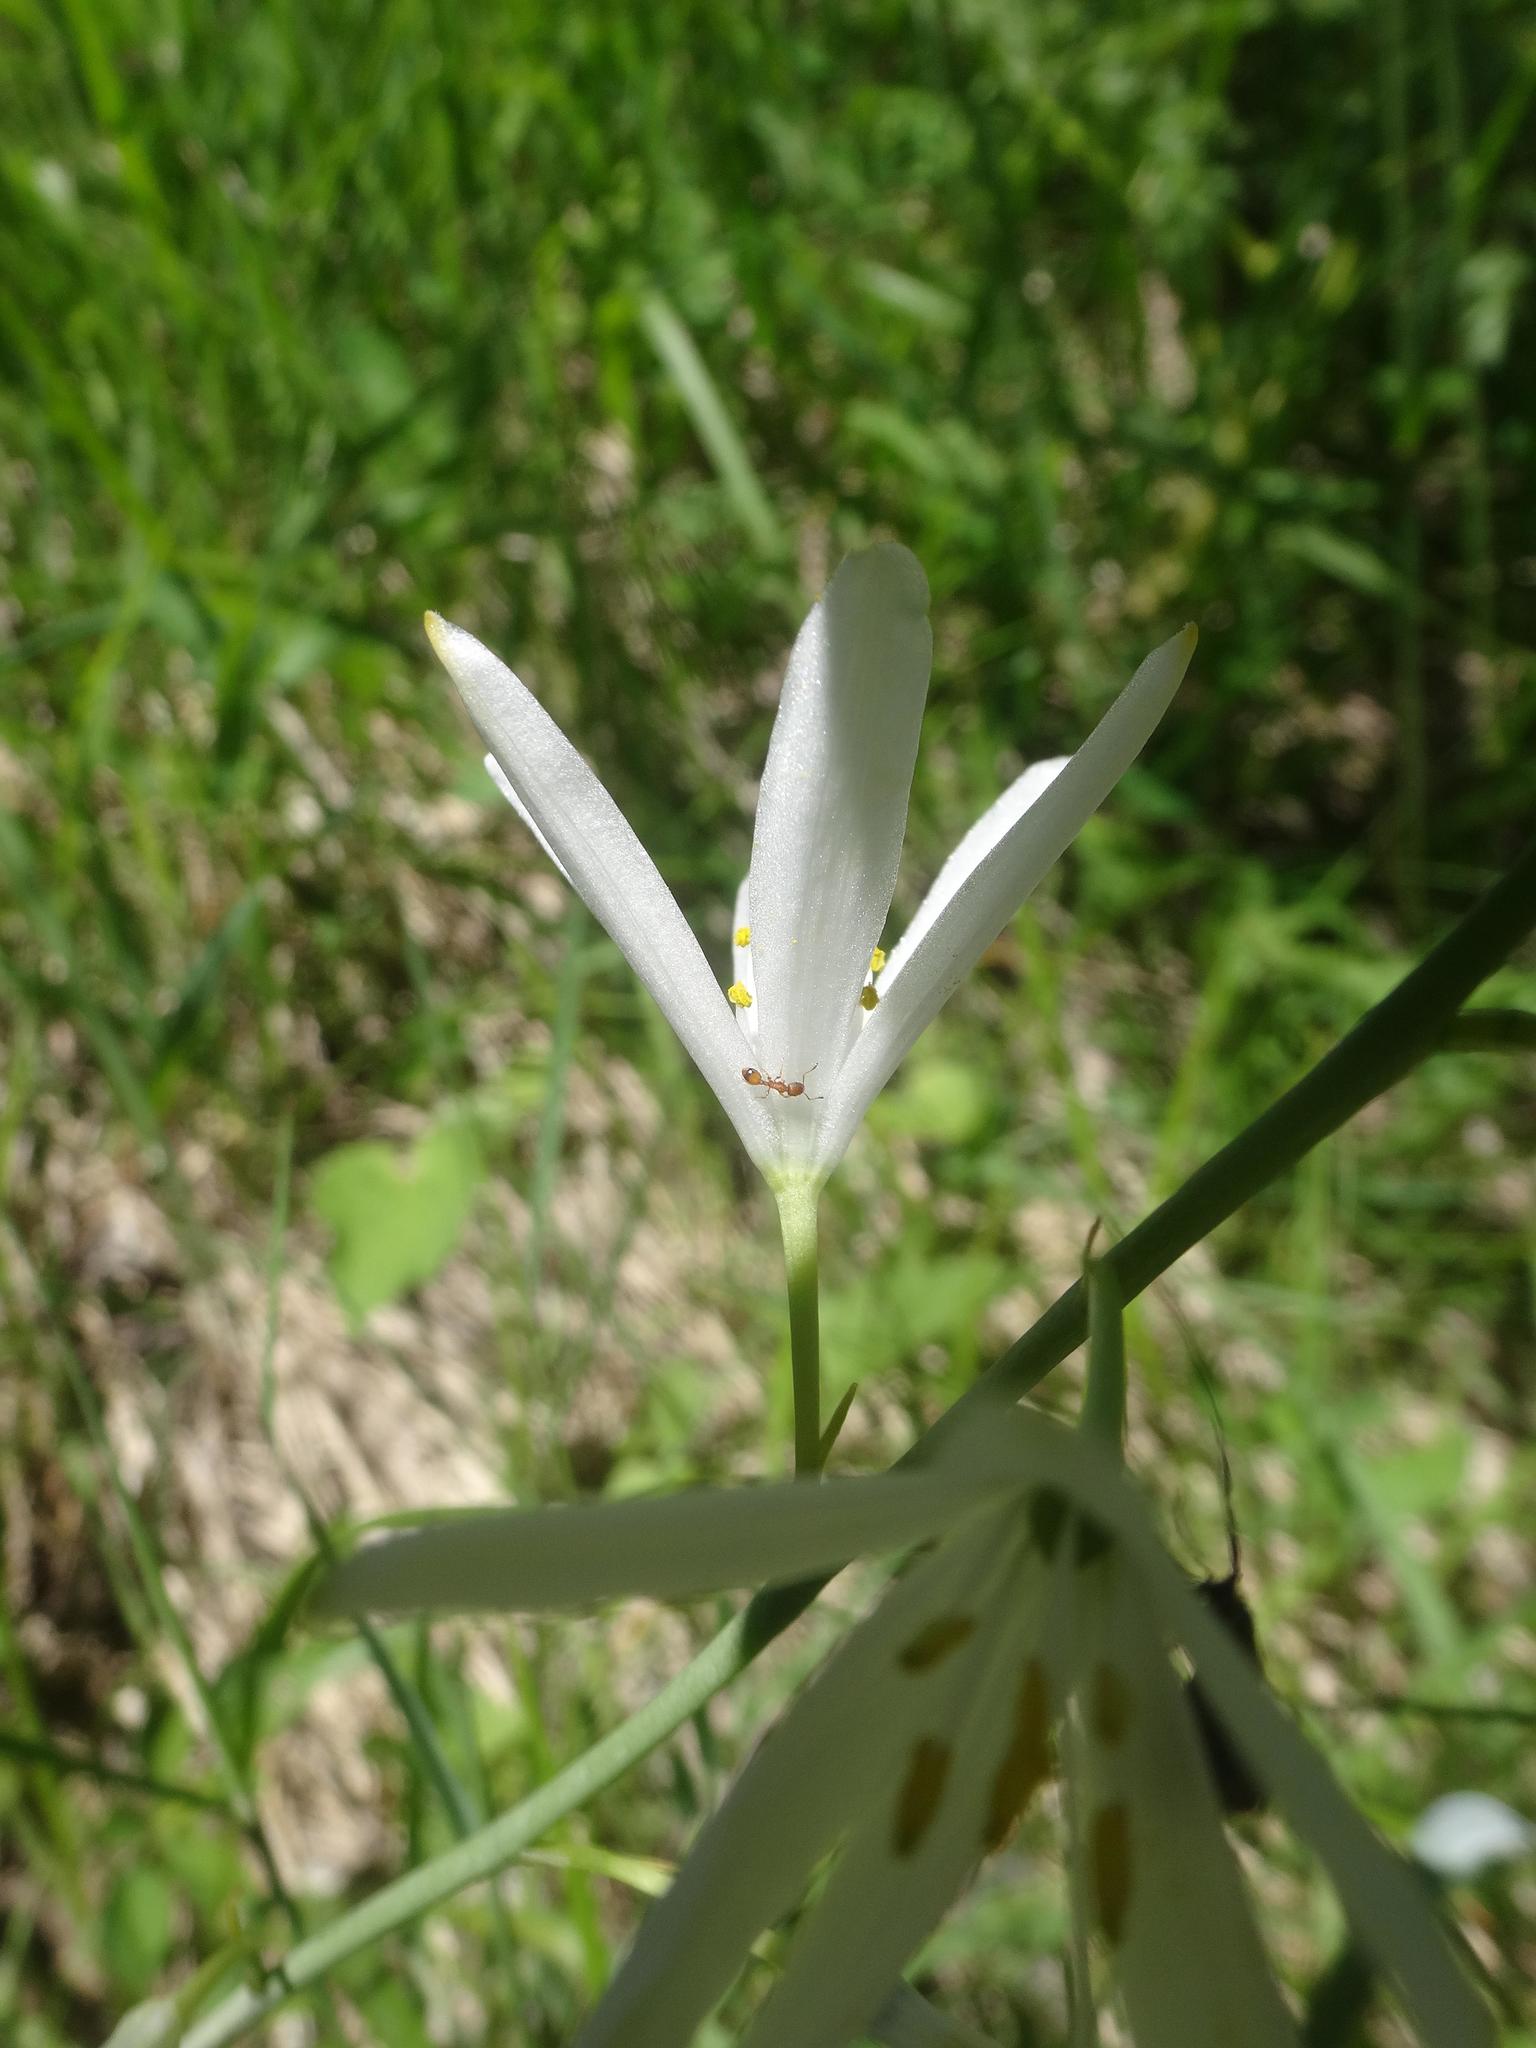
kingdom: Plantae
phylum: Tracheophyta
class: Liliopsida
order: Asparagales
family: Asparagaceae
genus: Anthericum
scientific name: Anthericum liliago
